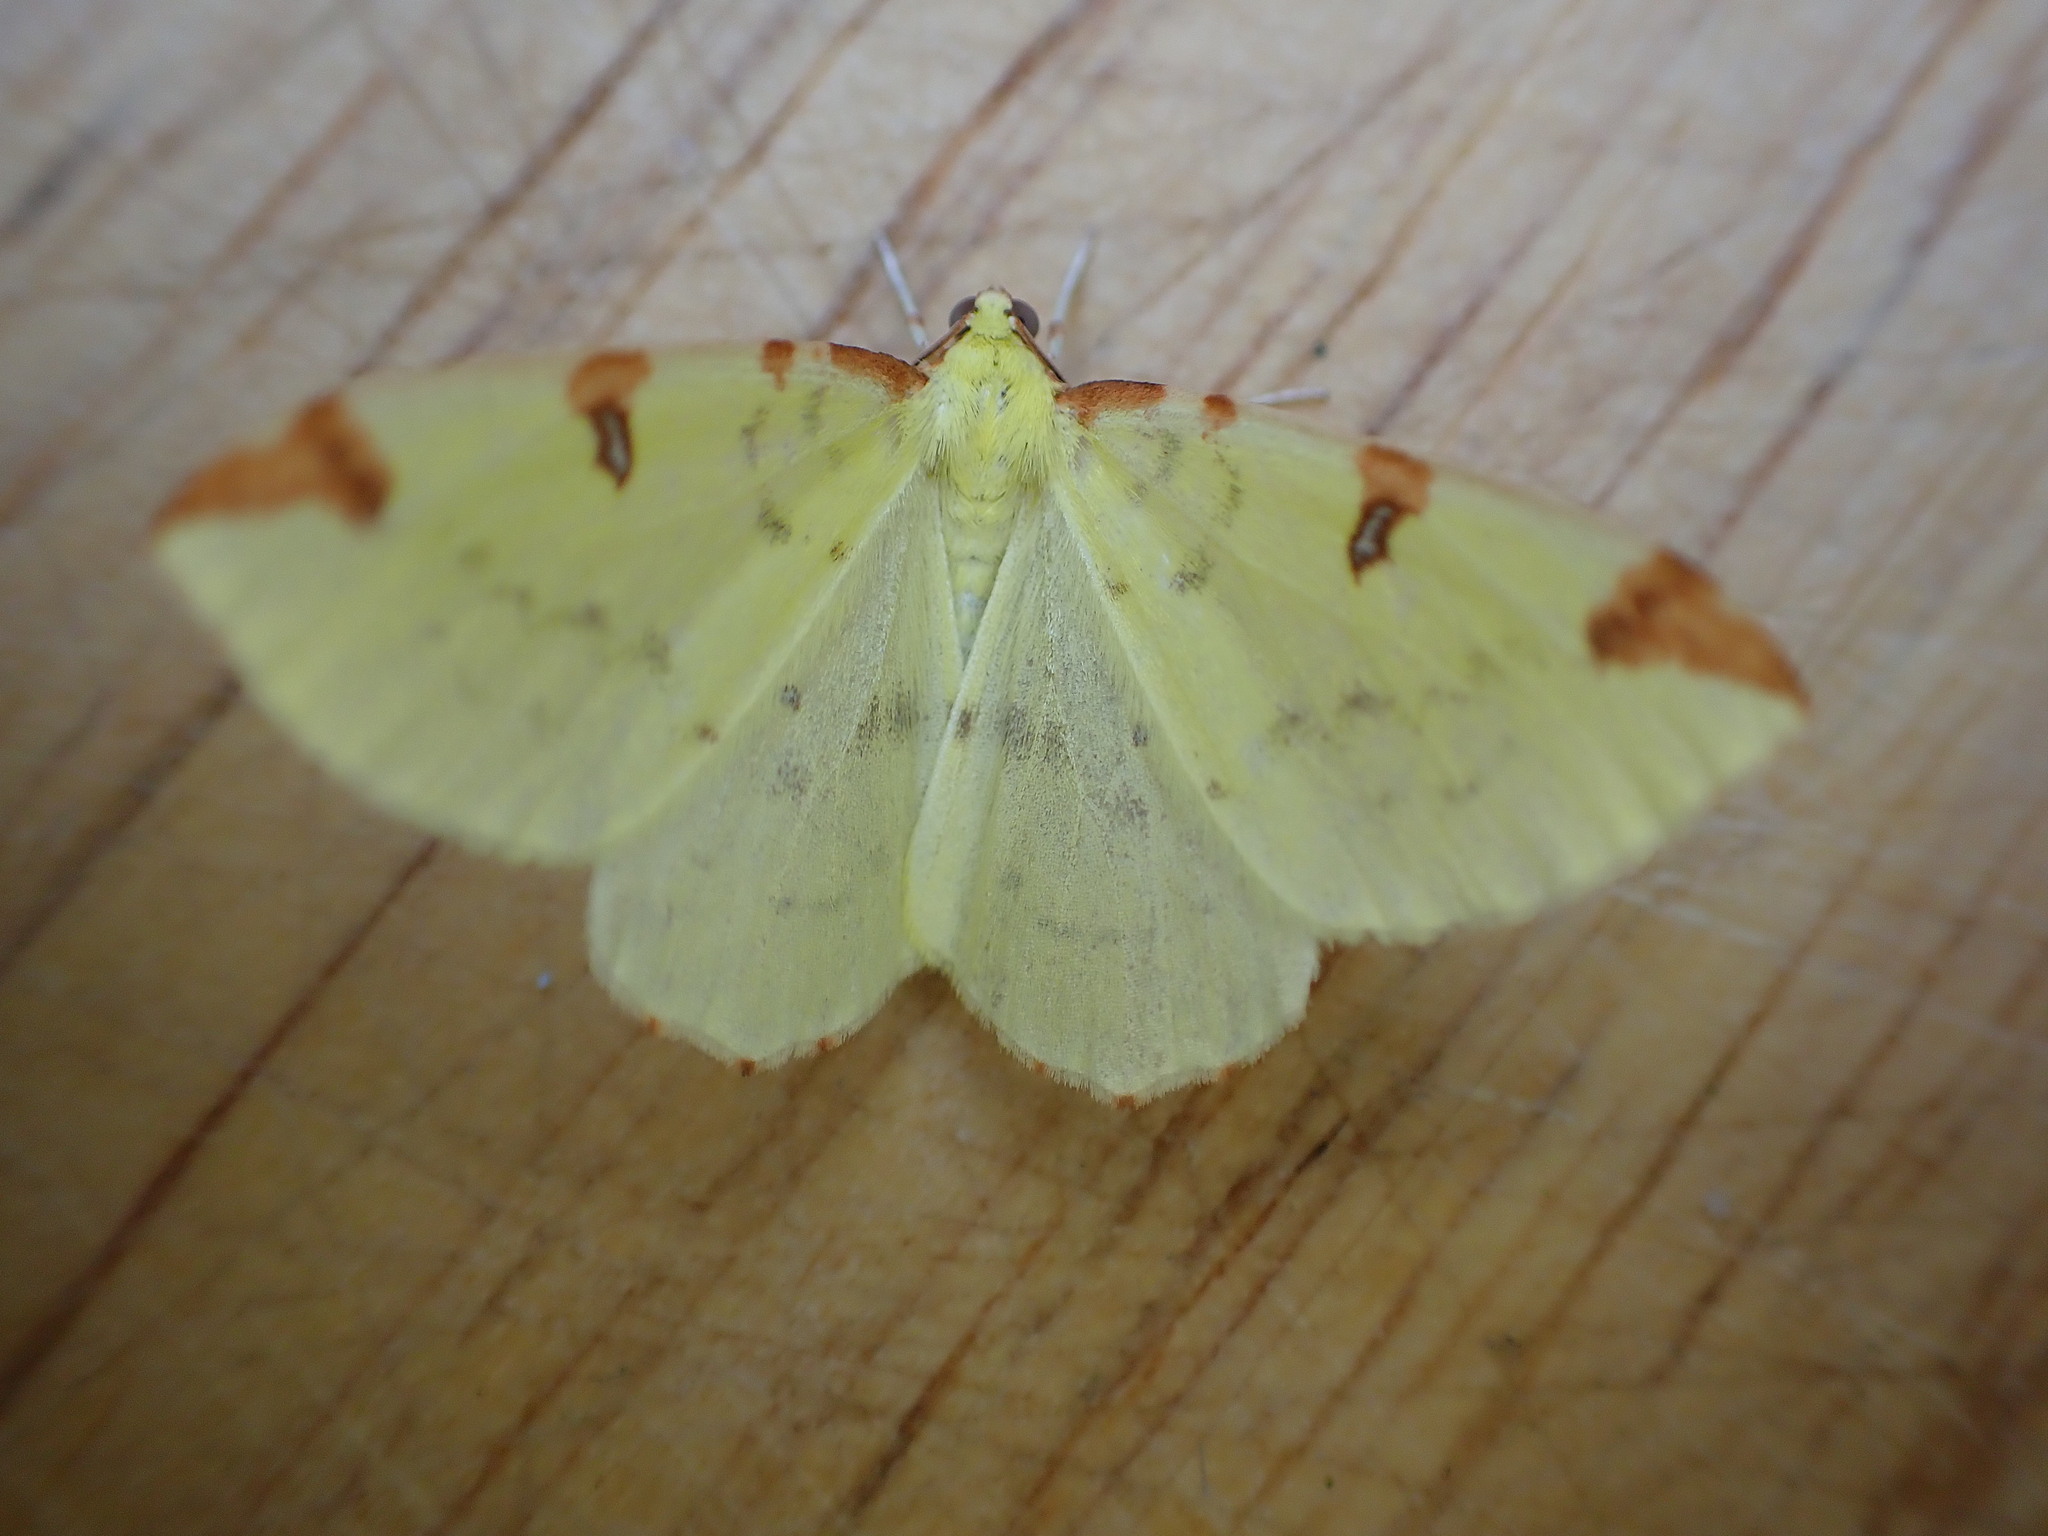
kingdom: Animalia
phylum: Arthropoda
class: Insecta
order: Lepidoptera
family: Geometridae
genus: Opisthograptis
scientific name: Opisthograptis luteolata
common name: Brimstone moth
